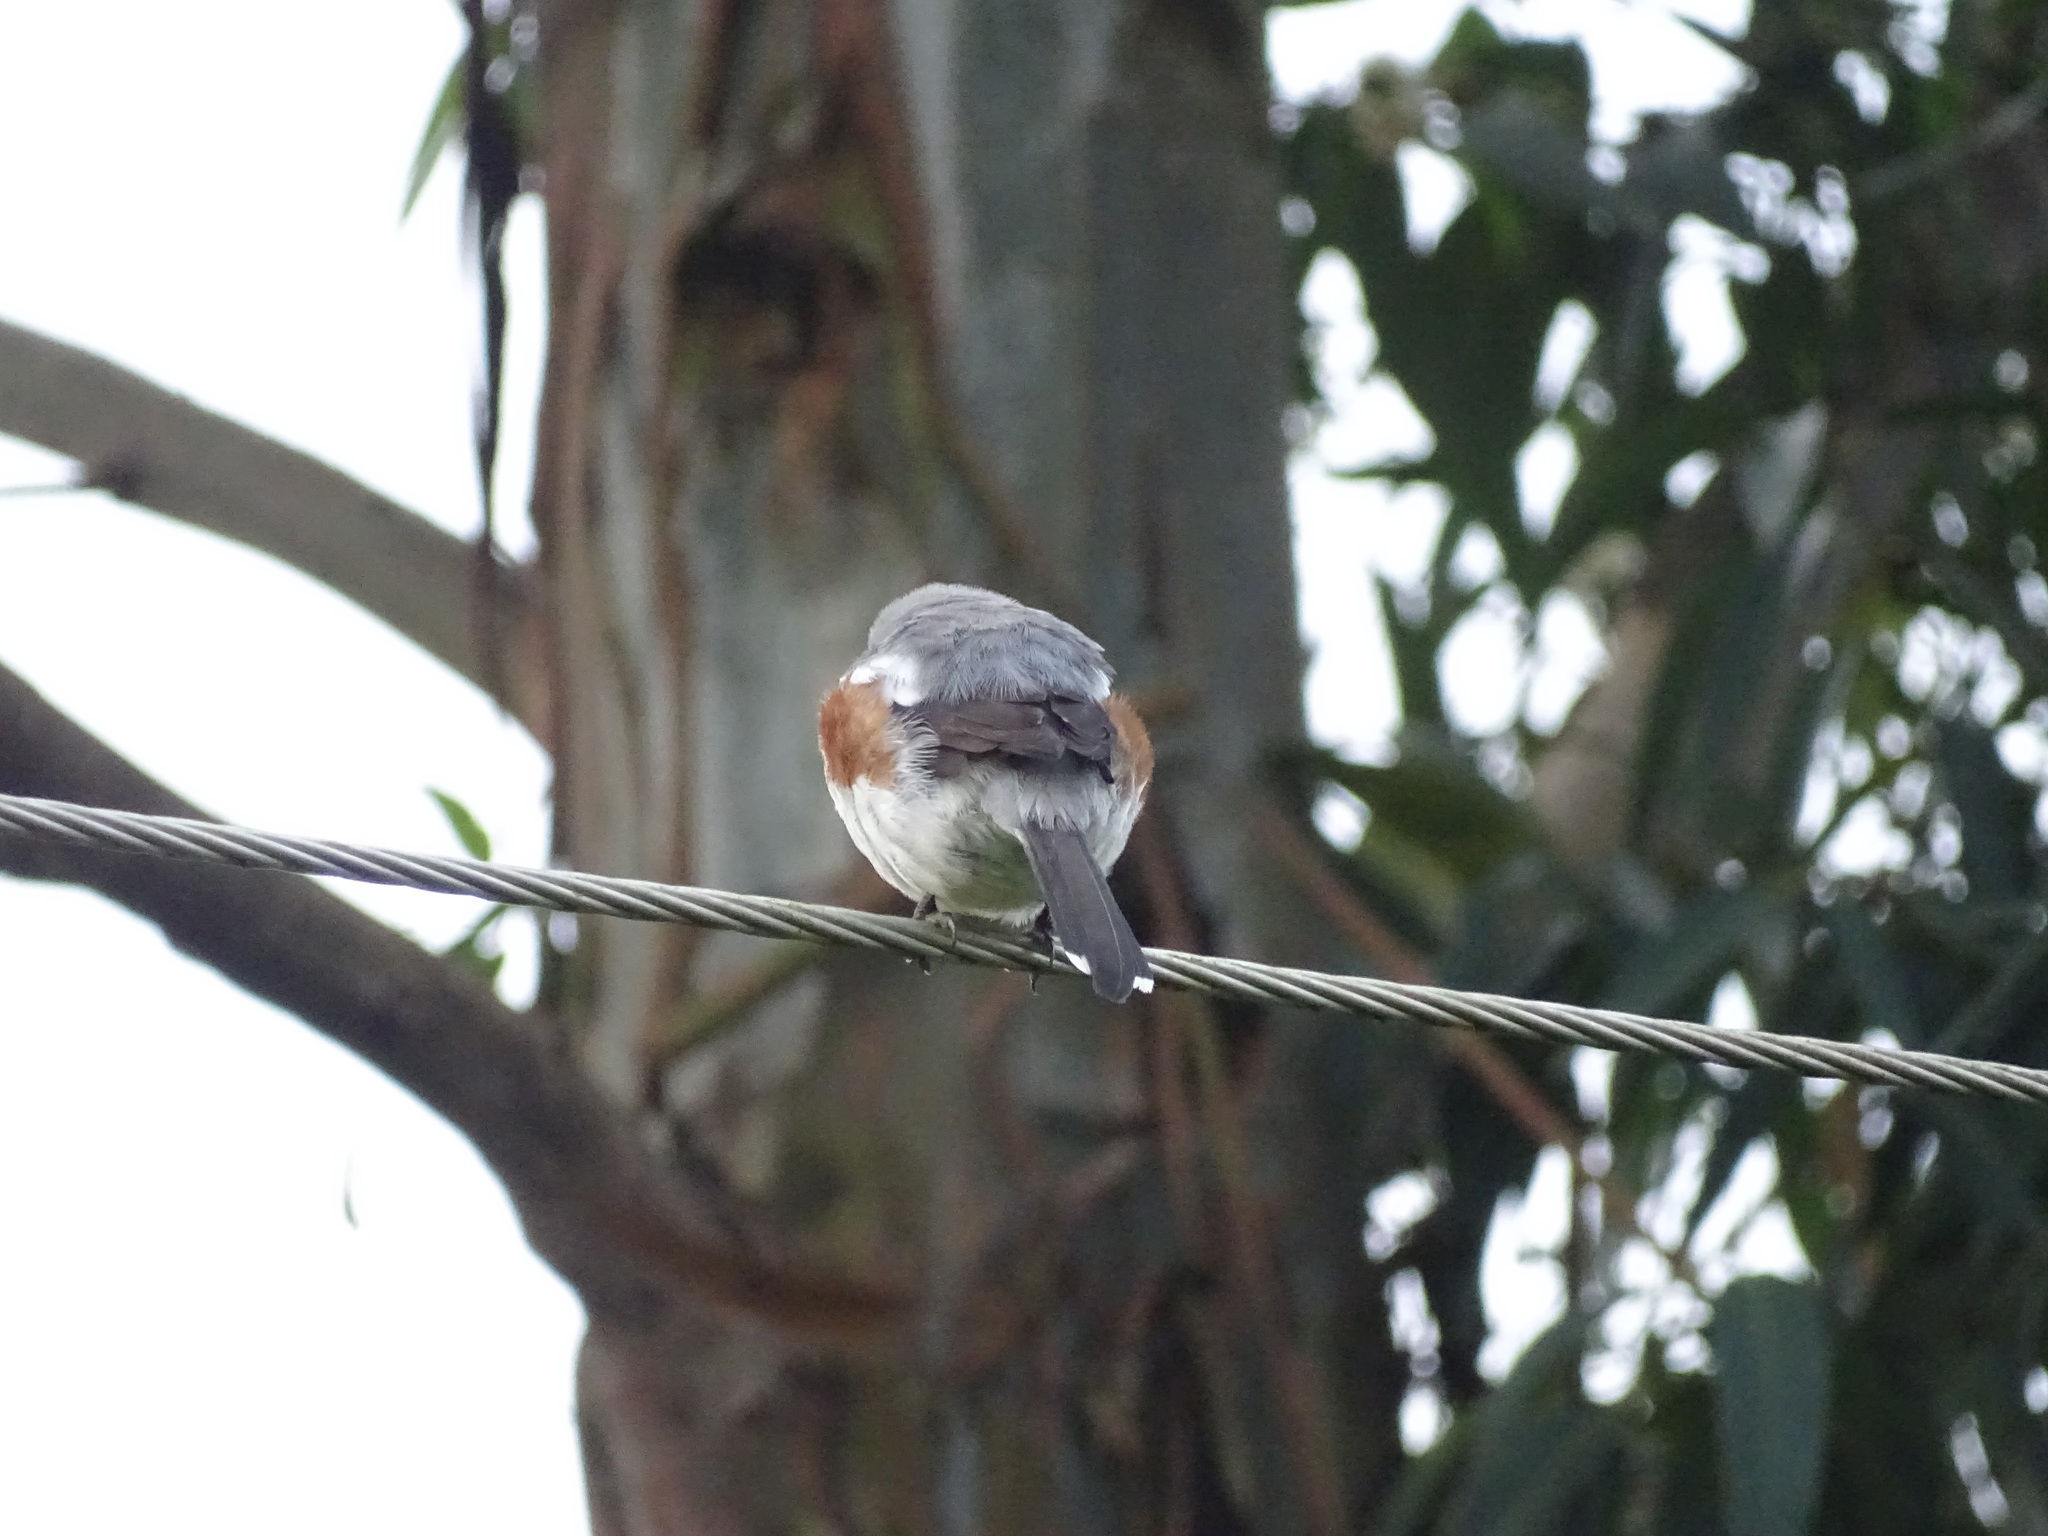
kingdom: Animalia
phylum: Chordata
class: Aves
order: Passeriformes
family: Laniidae
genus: Lanius
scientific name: Lanius mackinnoni
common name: Mackinnon's shrike
